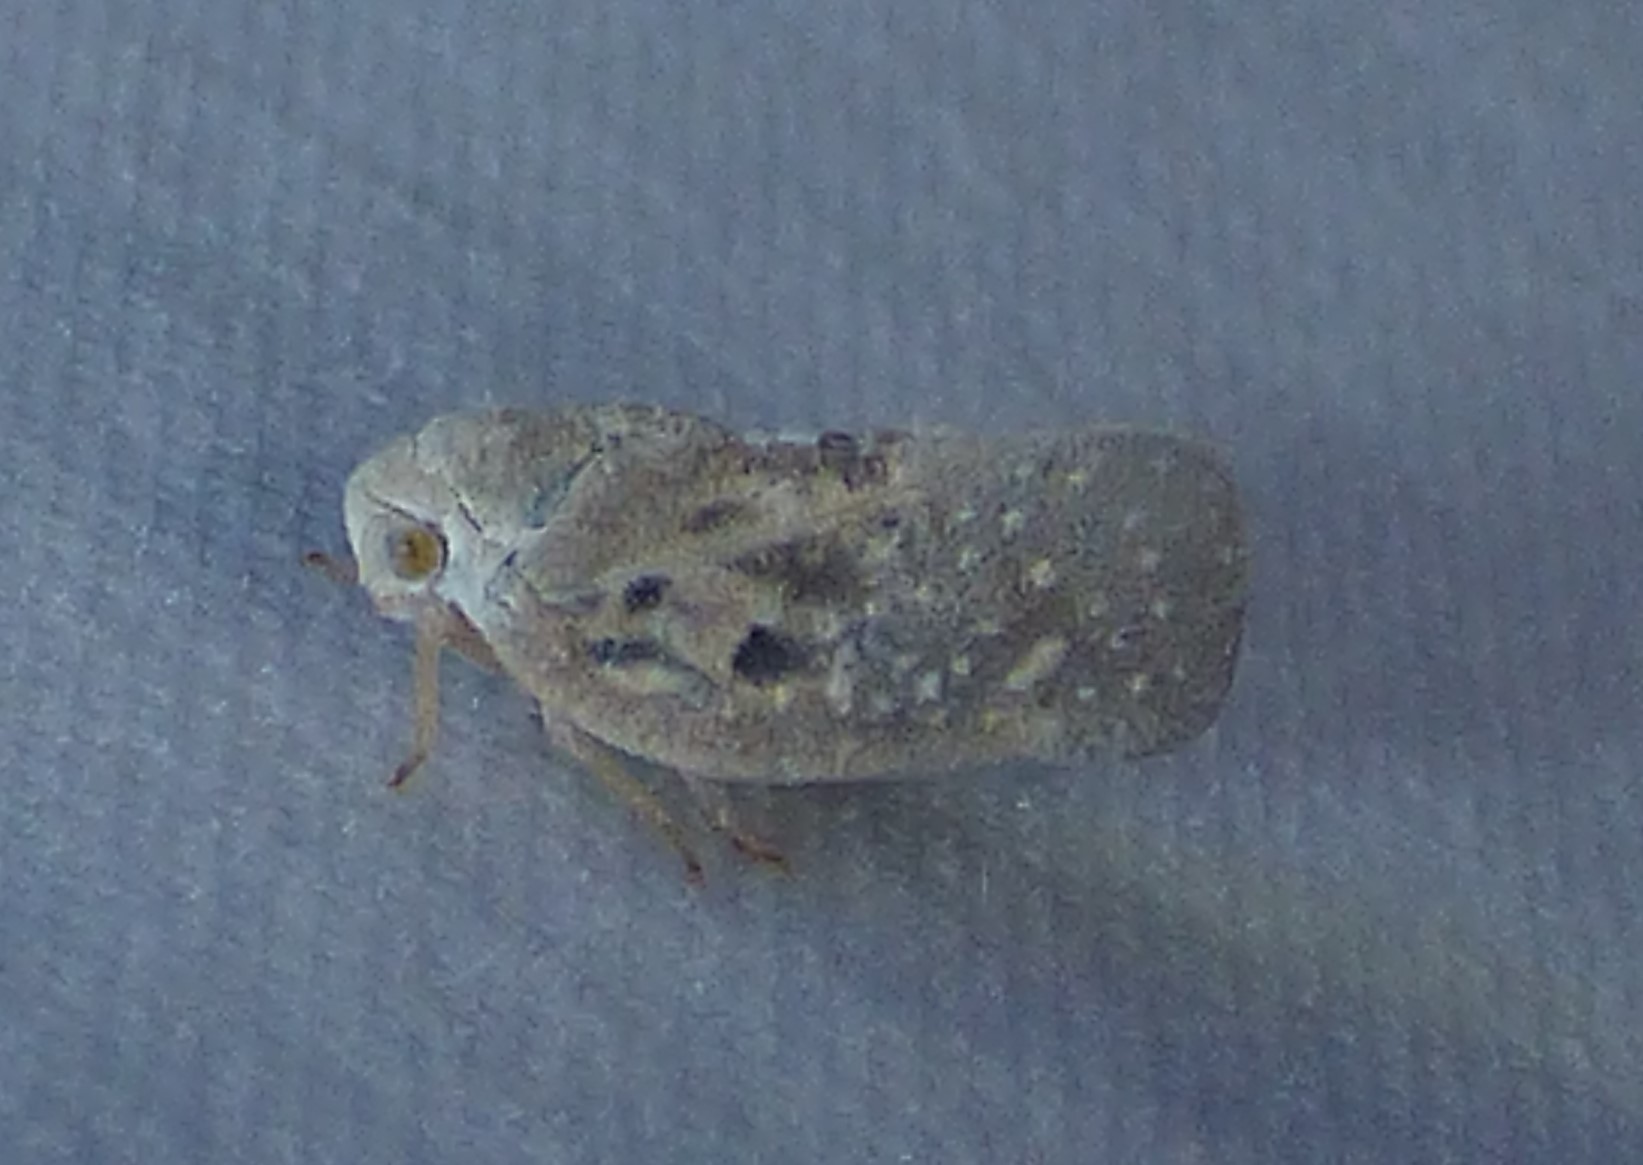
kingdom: Animalia
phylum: Arthropoda
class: Insecta
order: Hemiptera
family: Flatidae
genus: Metcalfa
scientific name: Metcalfa pruinosa
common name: Citrus flatid planthopper
